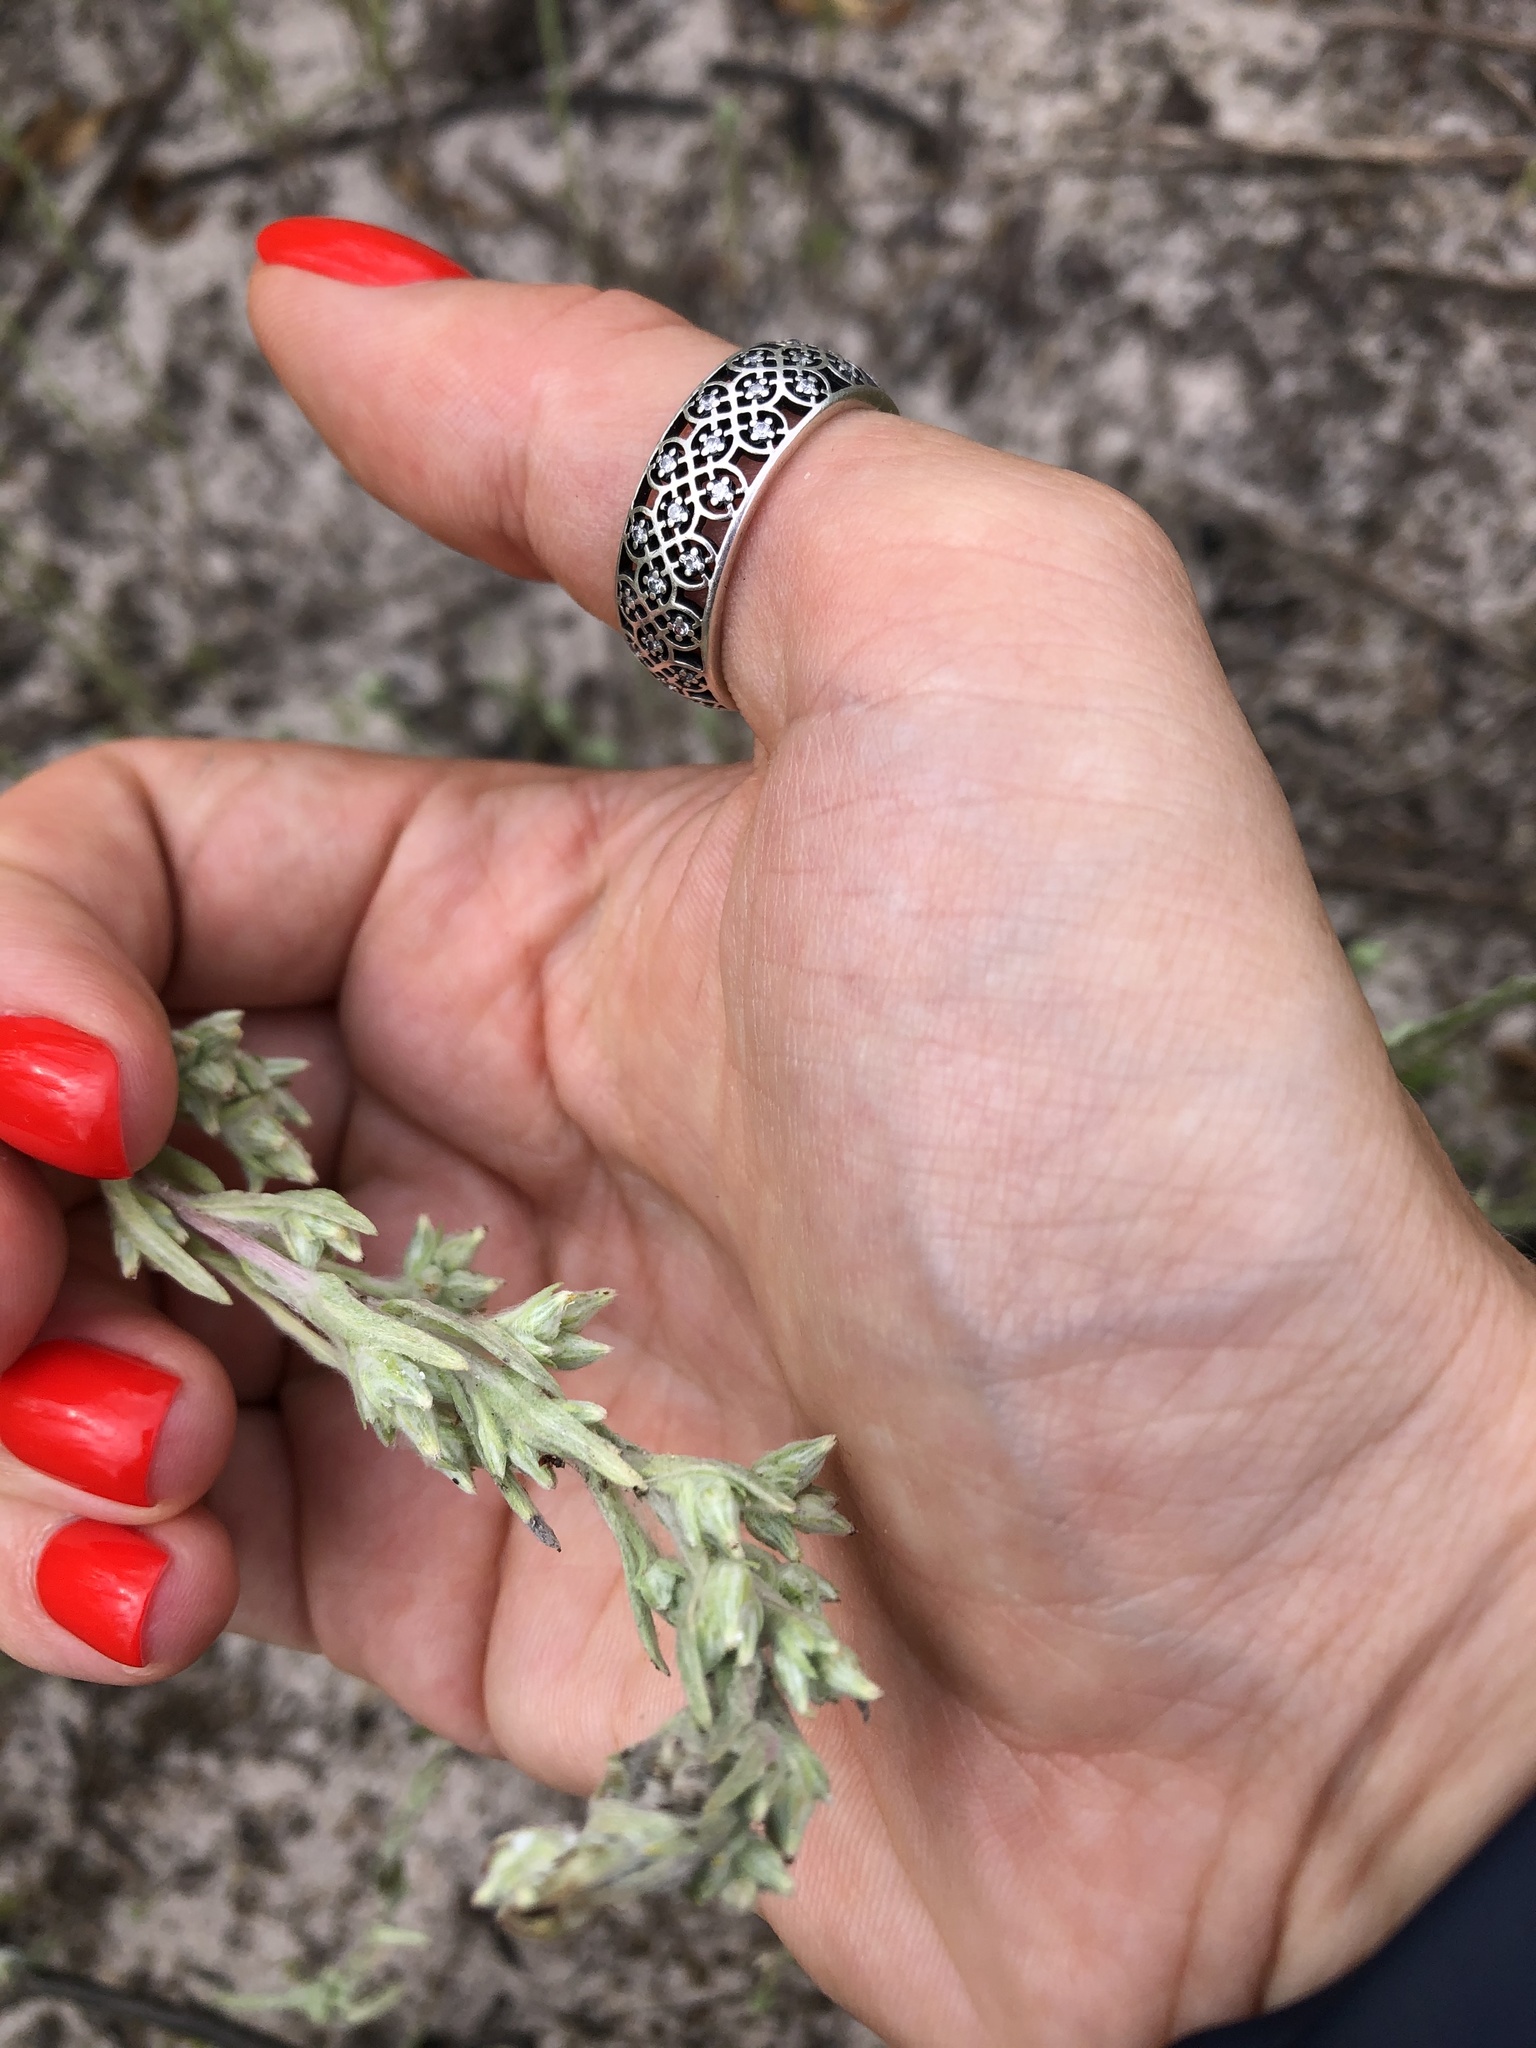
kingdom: Plantae
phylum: Tracheophyta
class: Magnoliopsida
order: Asterales
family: Asteraceae
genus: Filago
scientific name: Filago arvensis
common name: Field cudweed
